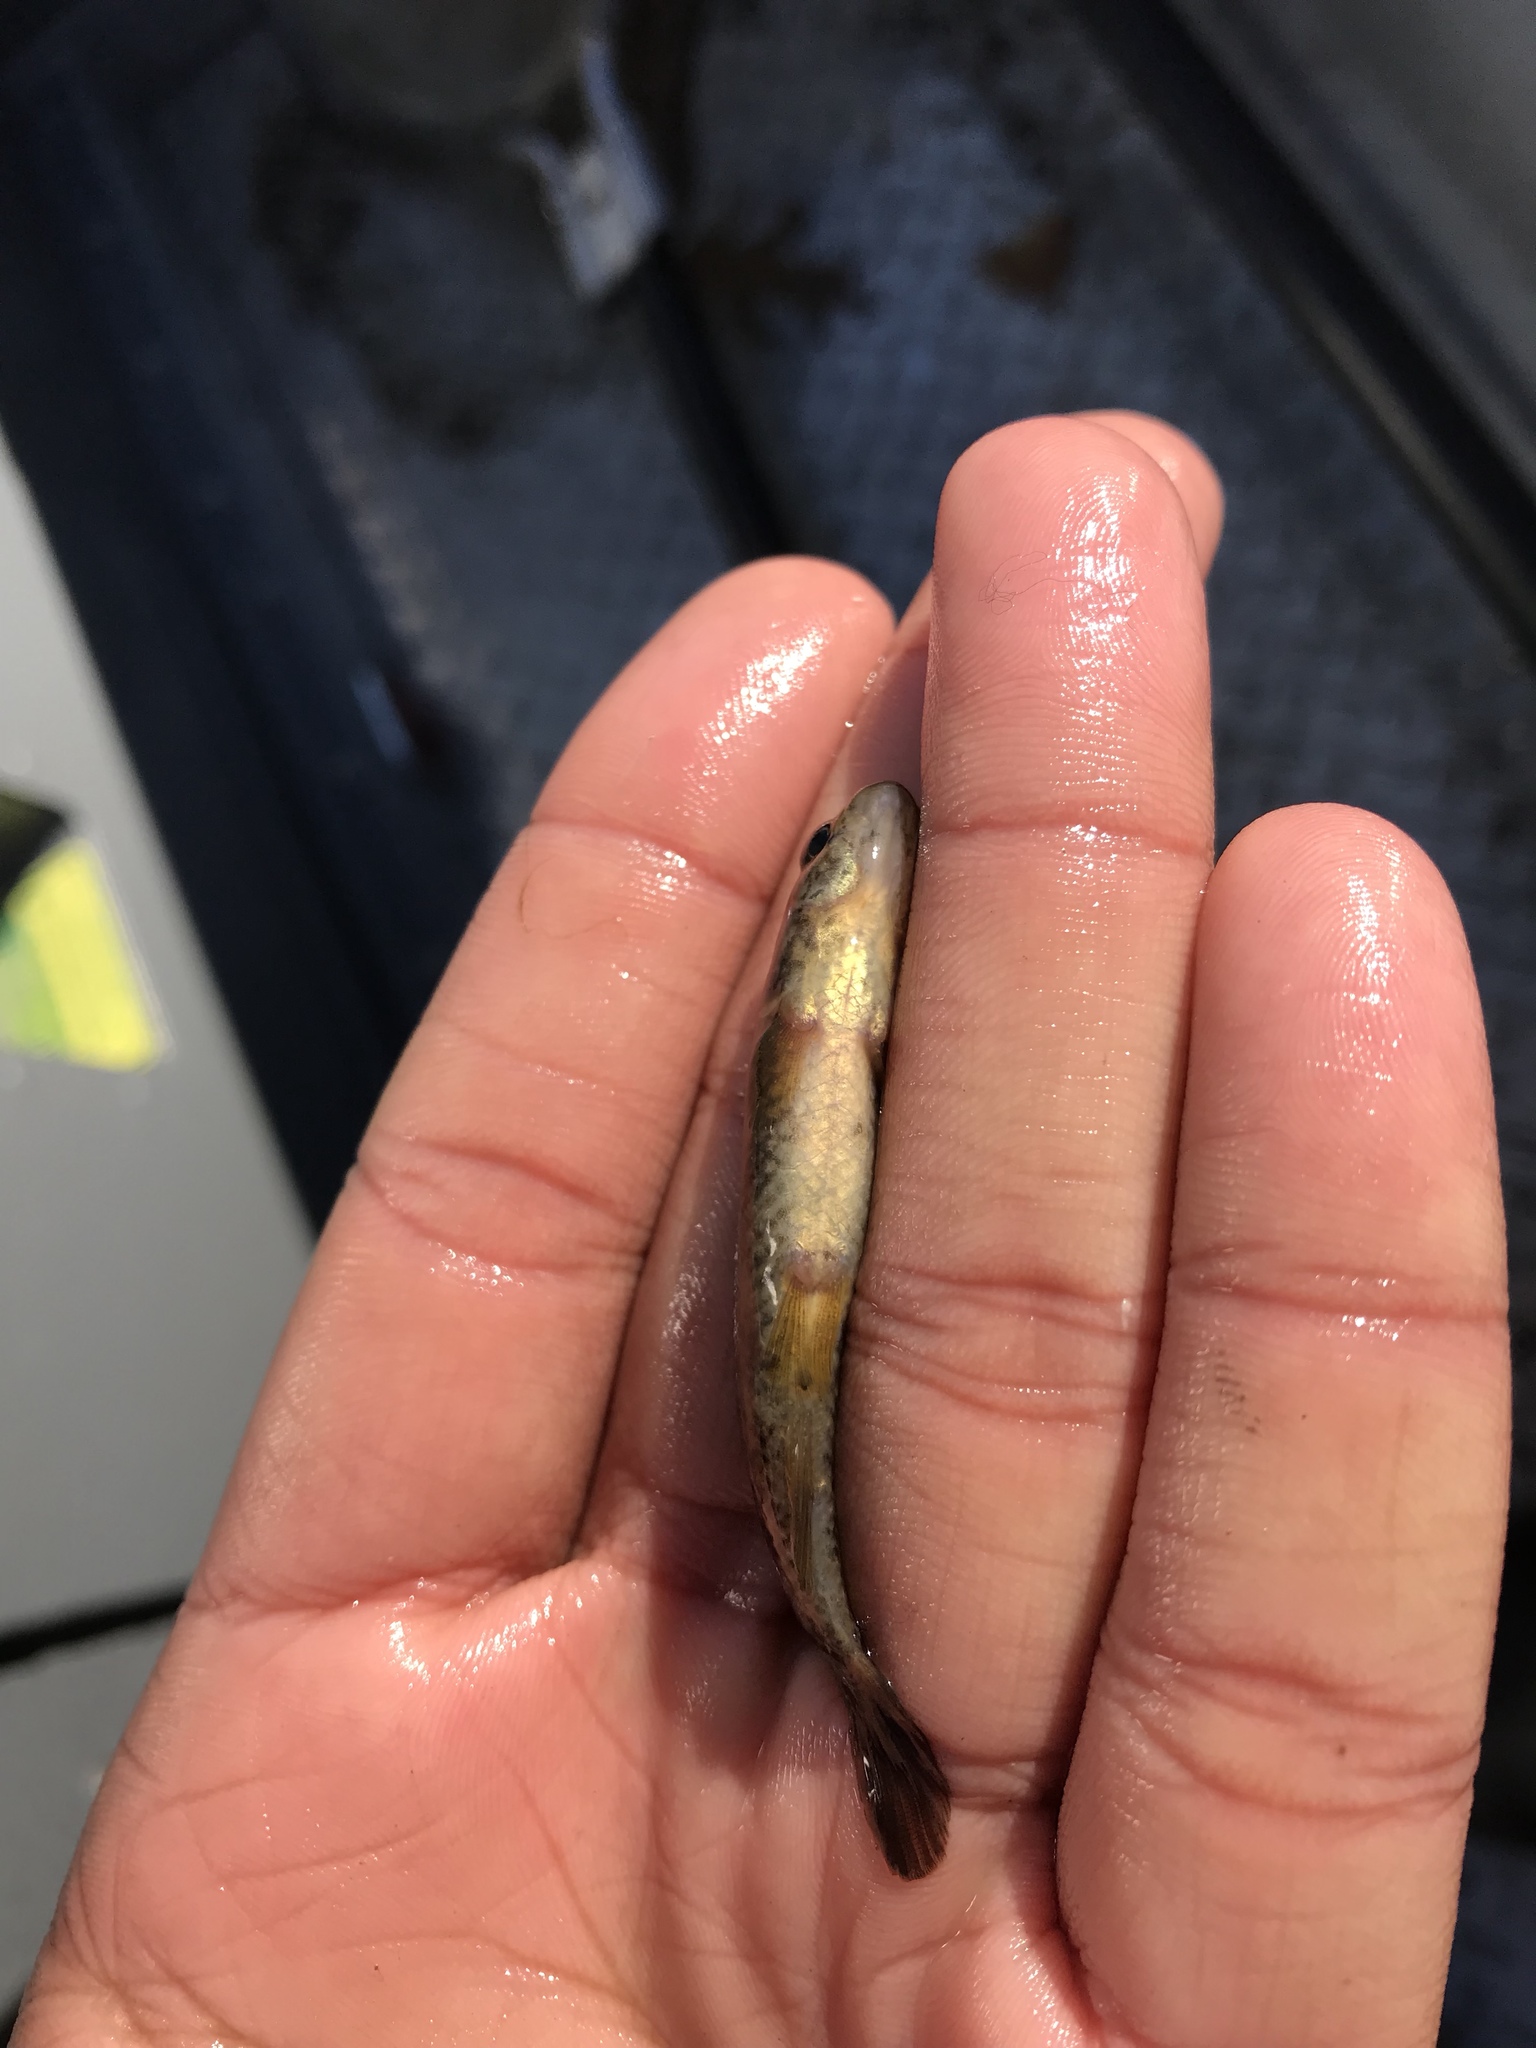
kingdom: Animalia
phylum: Chordata
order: Esociformes
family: Umbridae
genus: Umbra
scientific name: Umbra limi
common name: Central mudminnow
